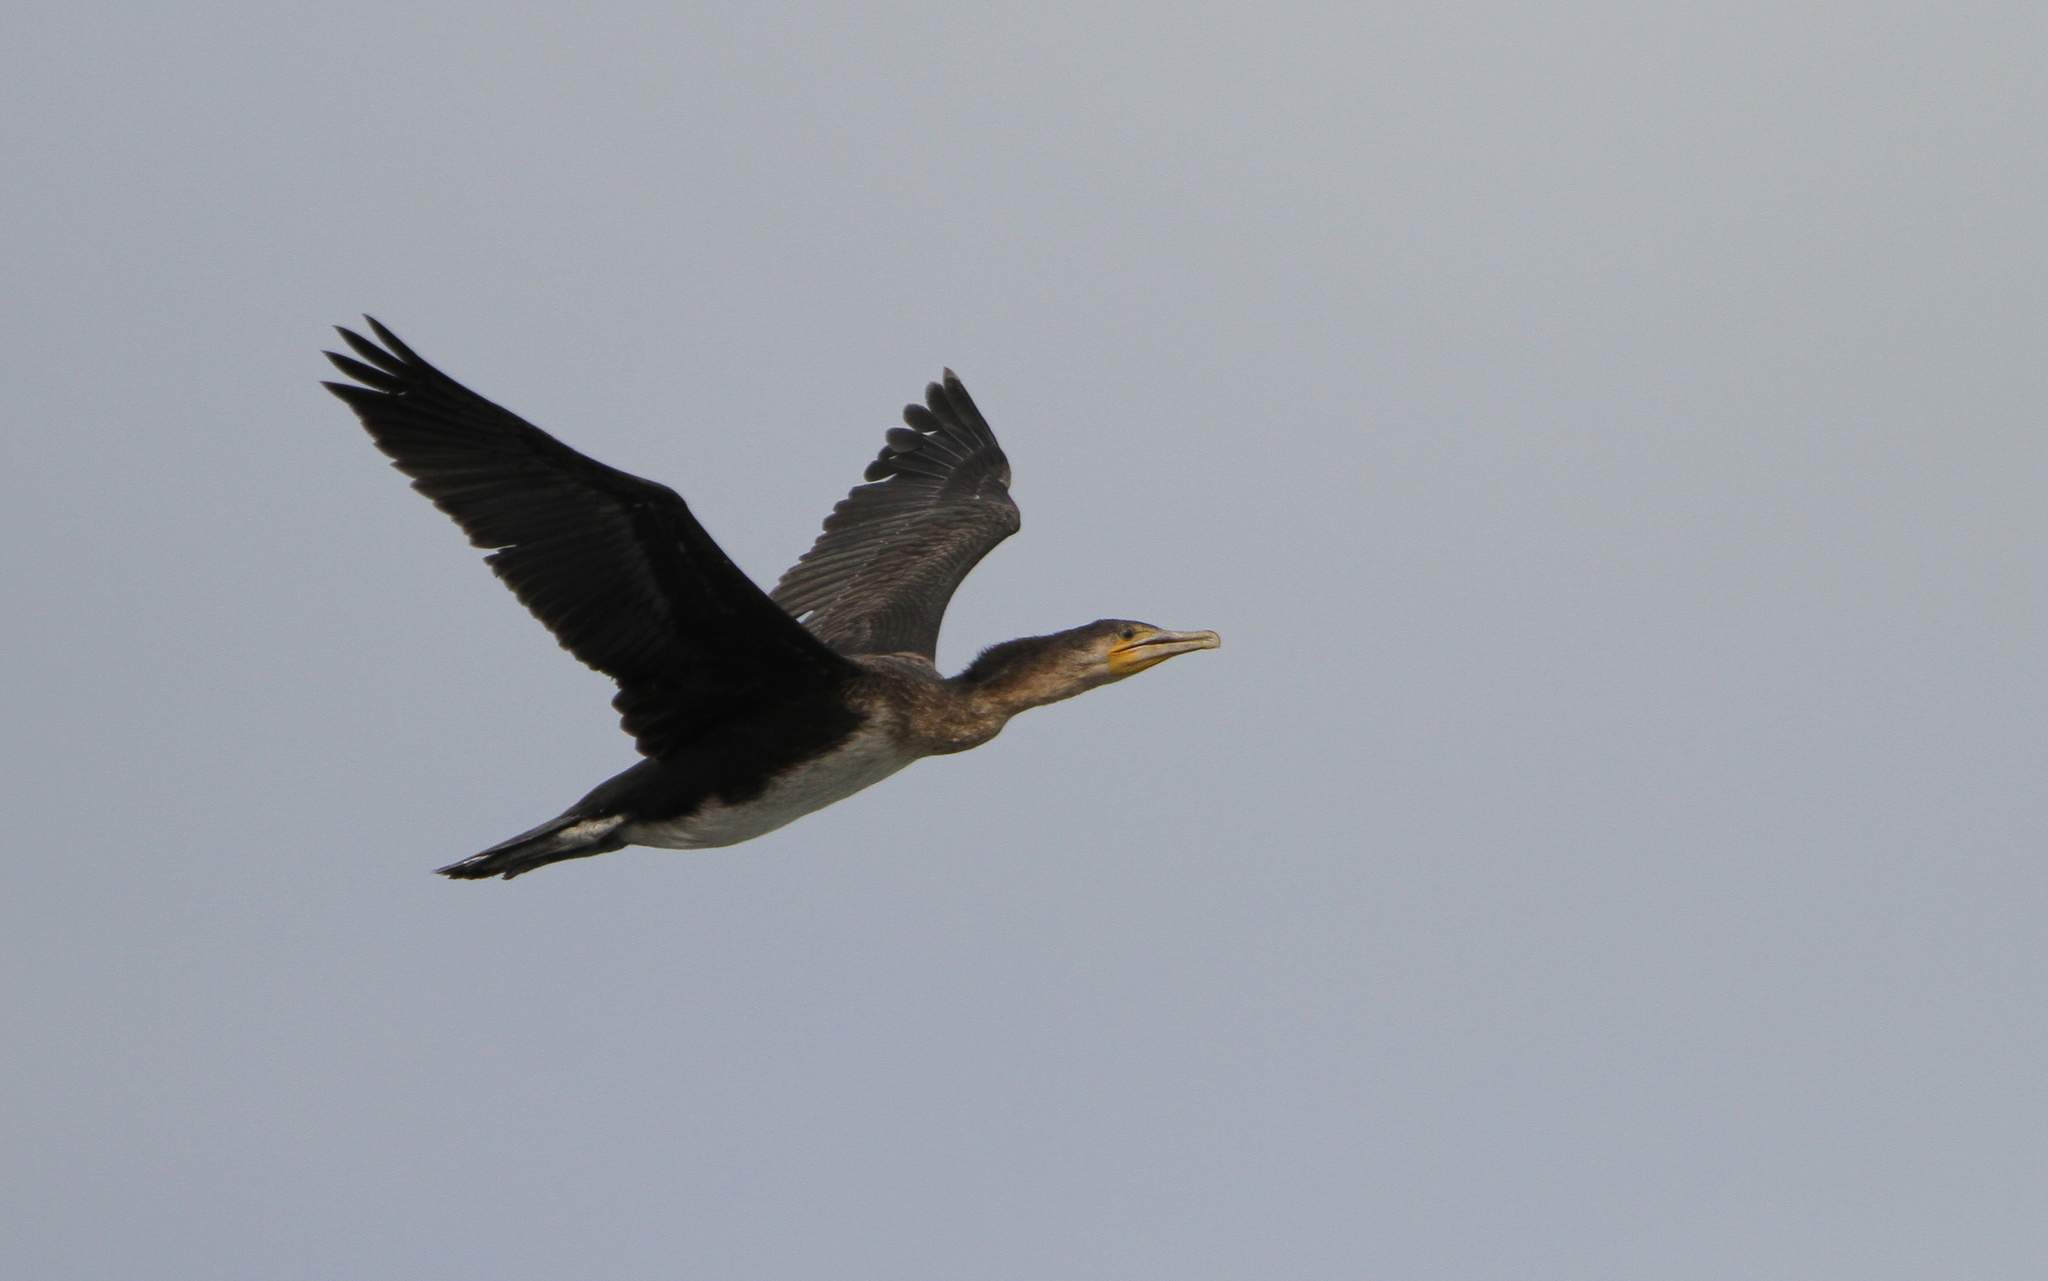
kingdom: Animalia
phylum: Chordata
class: Aves
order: Suliformes
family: Phalacrocoracidae
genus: Phalacrocorax
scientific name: Phalacrocorax carbo
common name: Great cormorant
